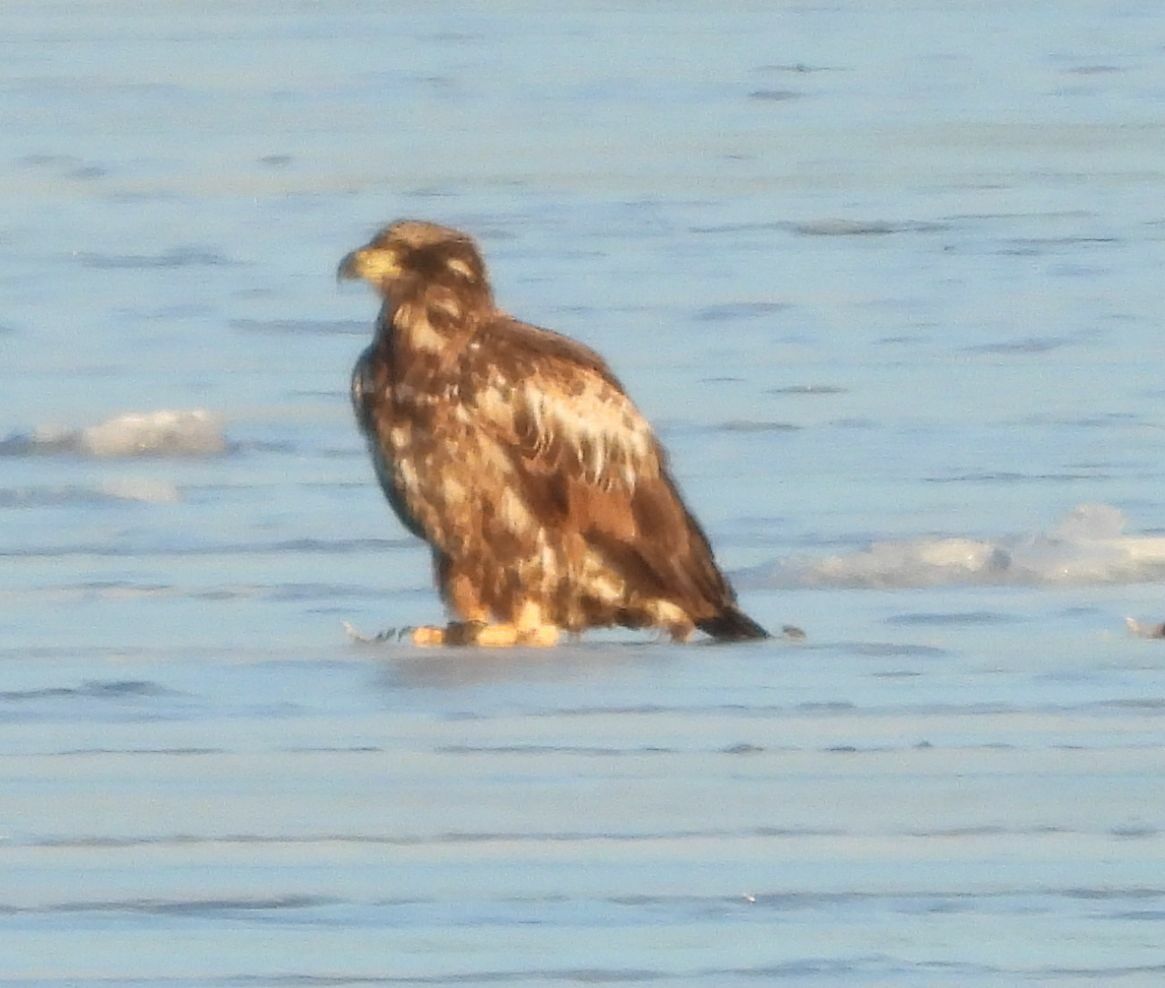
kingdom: Animalia
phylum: Chordata
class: Aves
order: Accipitriformes
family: Accipitridae
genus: Haliaeetus
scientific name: Haliaeetus leucocephalus
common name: Bald eagle
